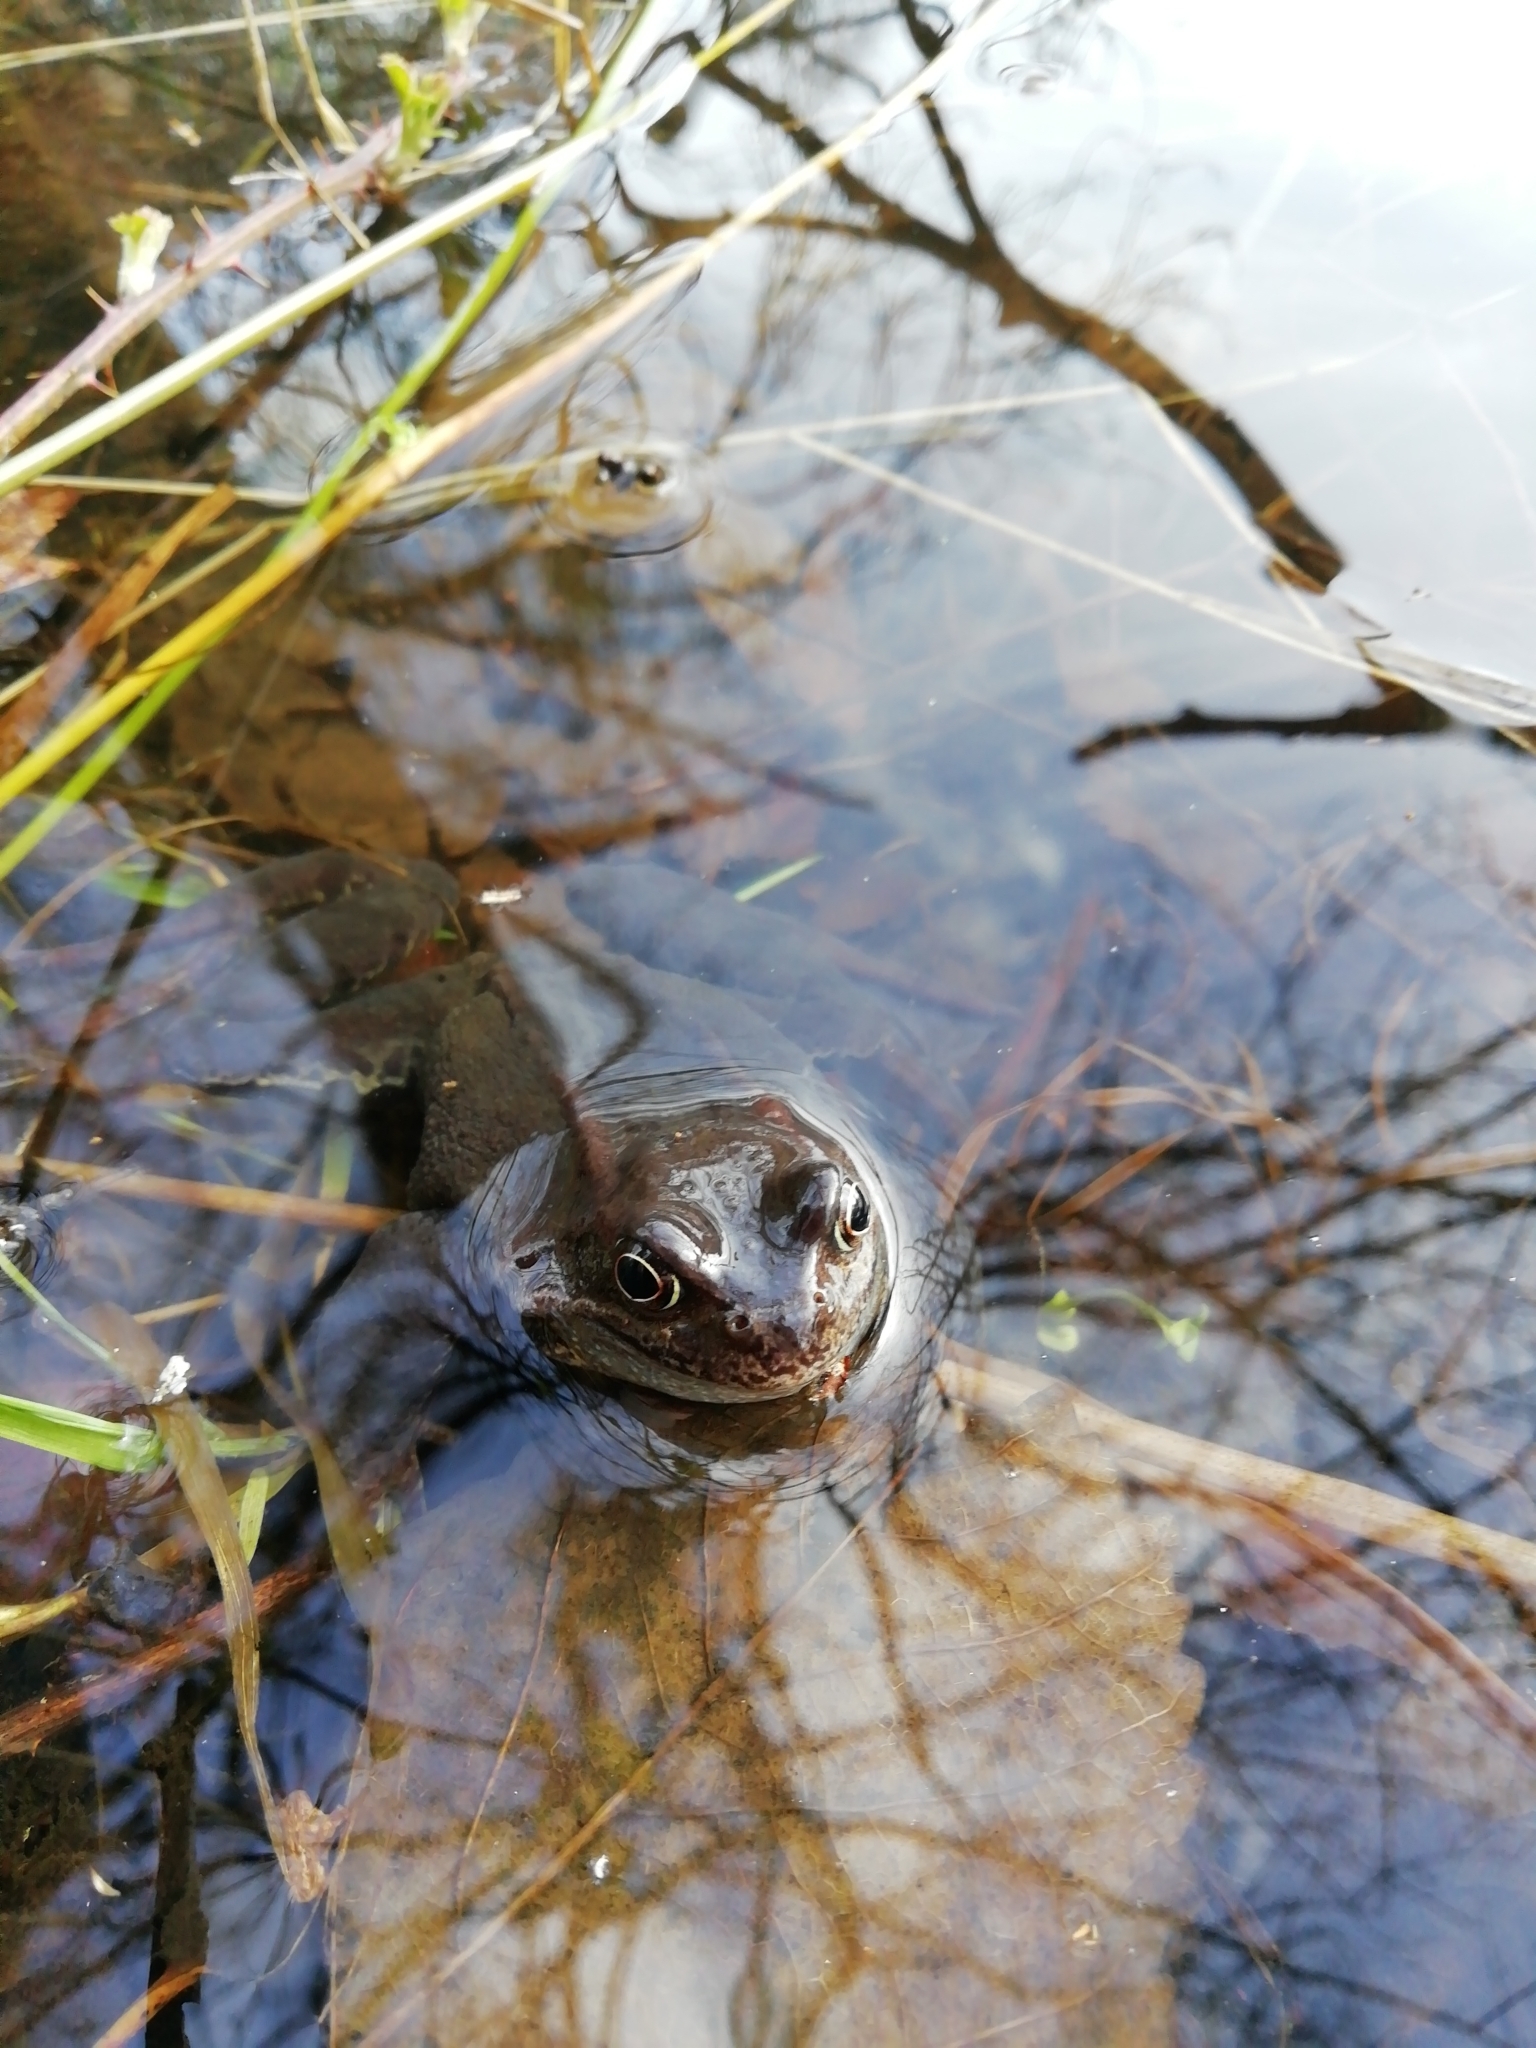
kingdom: Animalia
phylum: Chordata
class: Amphibia
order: Anura
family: Ranidae
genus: Rana
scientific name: Rana temporaria
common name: Common frog
